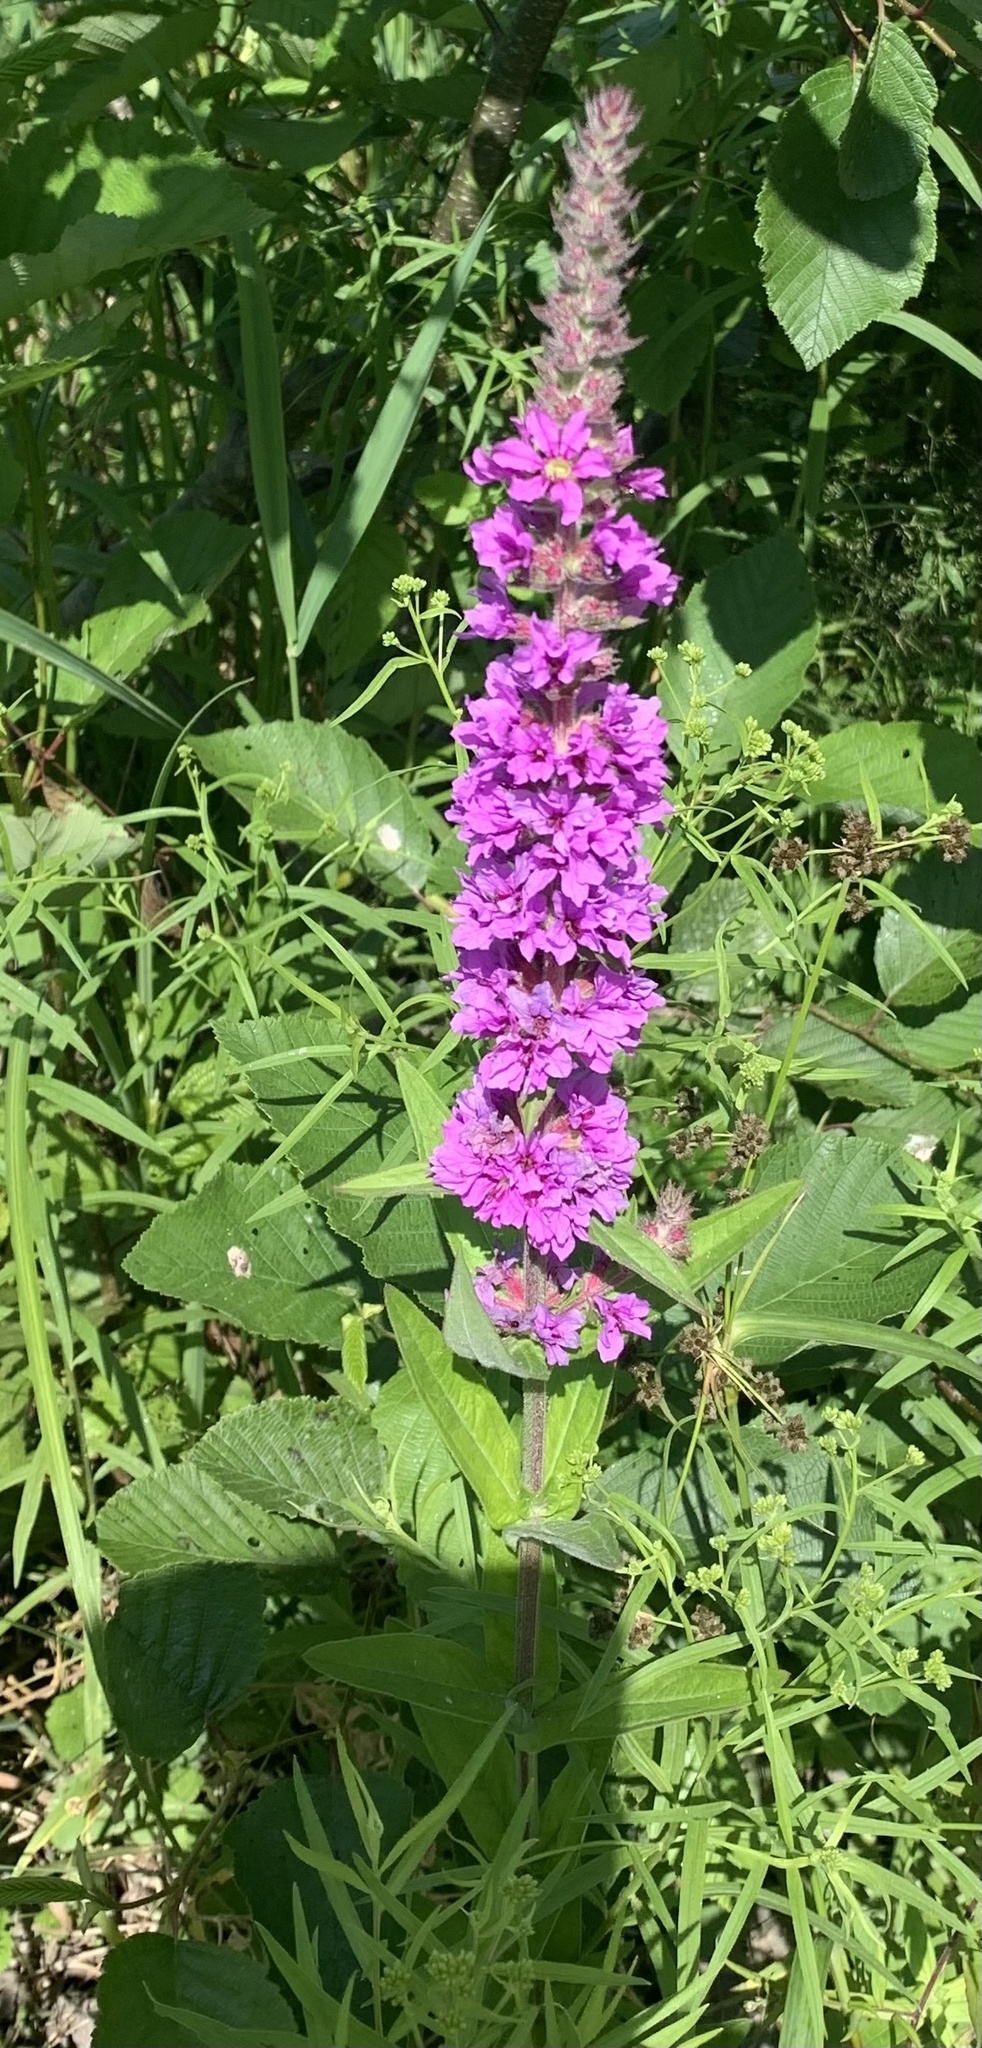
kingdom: Plantae
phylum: Tracheophyta
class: Magnoliopsida
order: Myrtales
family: Lythraceae
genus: Lythrum
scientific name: Lythrum salicaria
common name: Purple loosestrife
